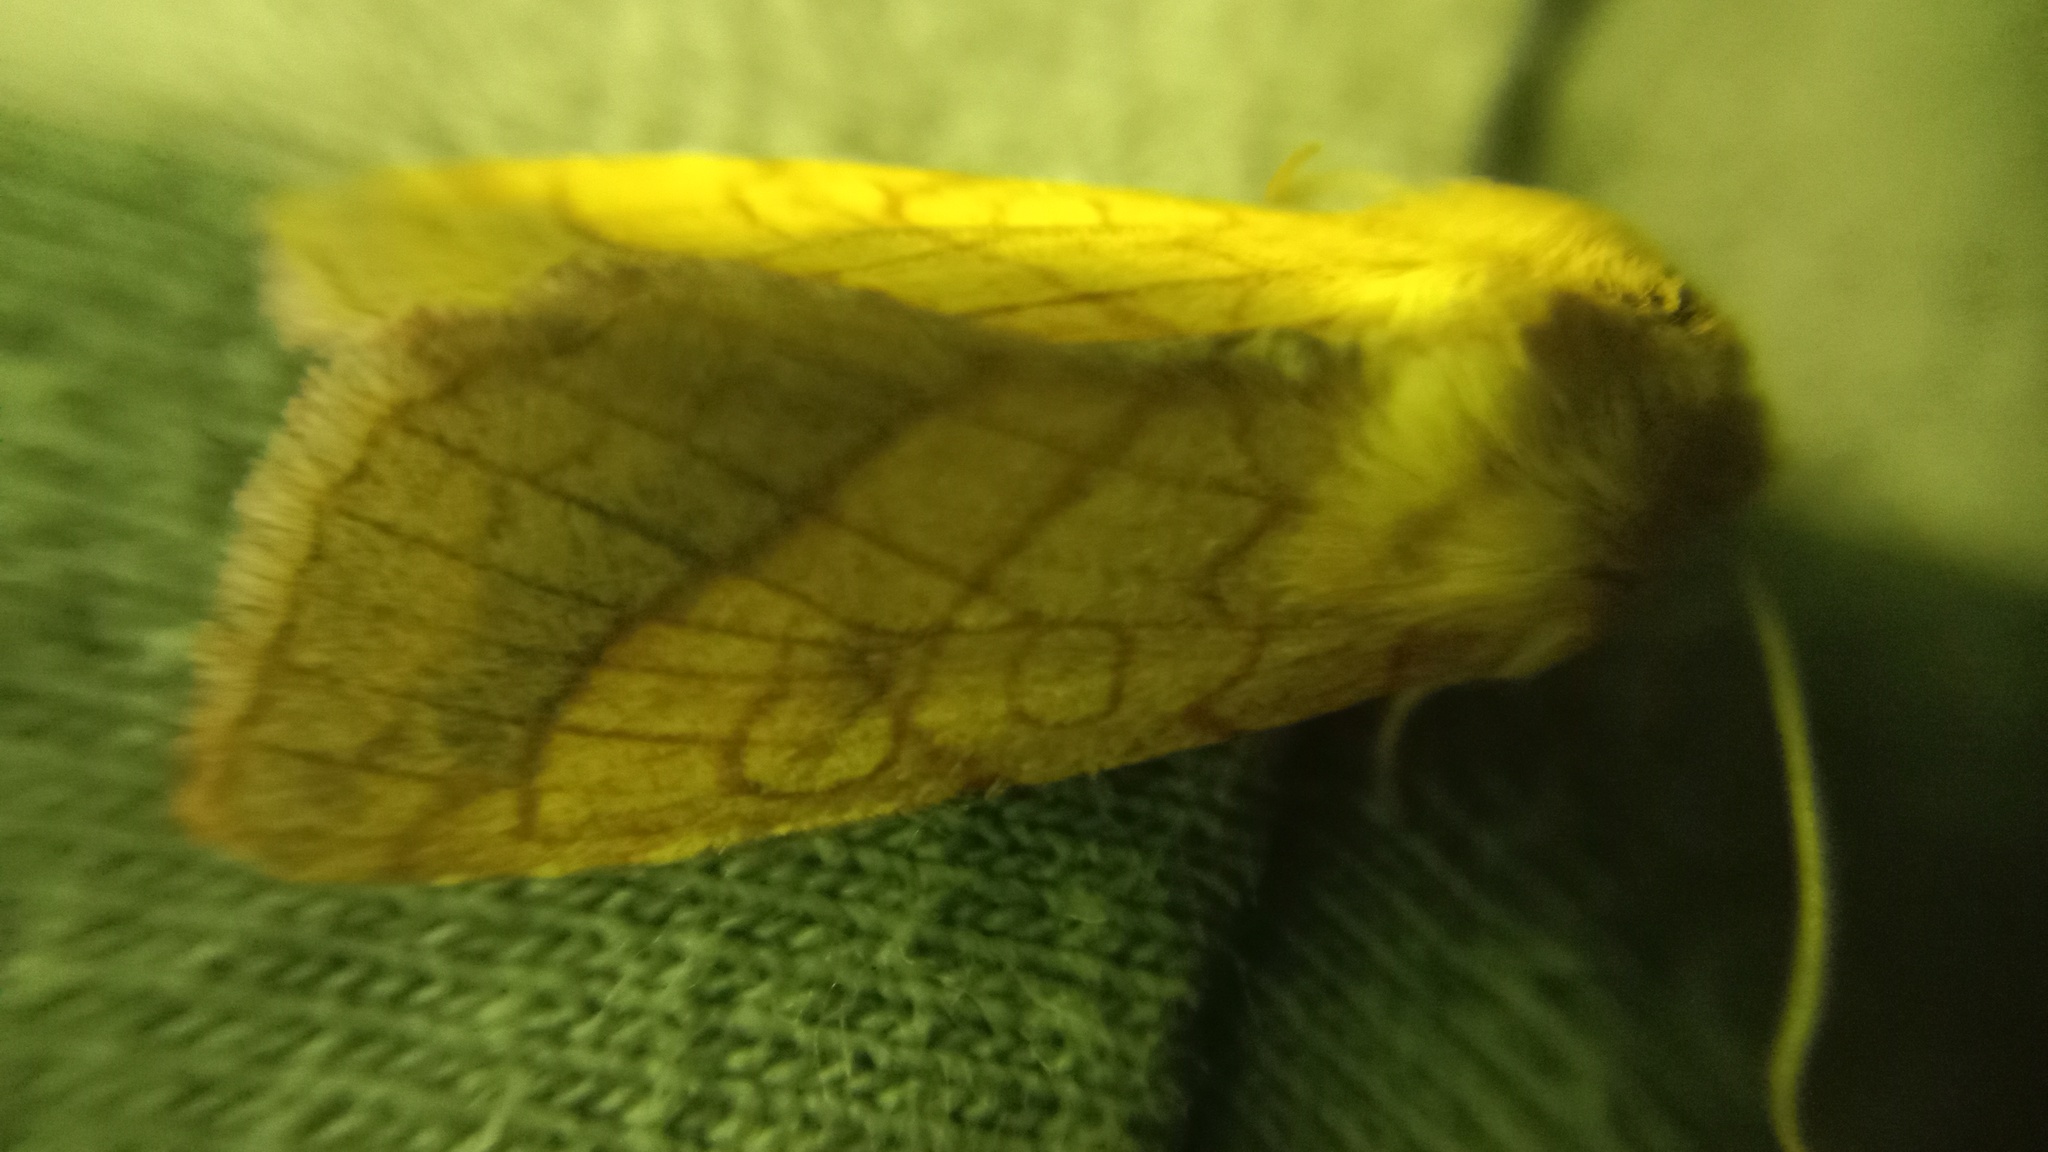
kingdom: Animalia
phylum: Arthropoda
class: Insecta
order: Lepidoptera
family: Noctuidae
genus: Pyrrhia
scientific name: Pyrrhia umbra
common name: Bordered sallow
